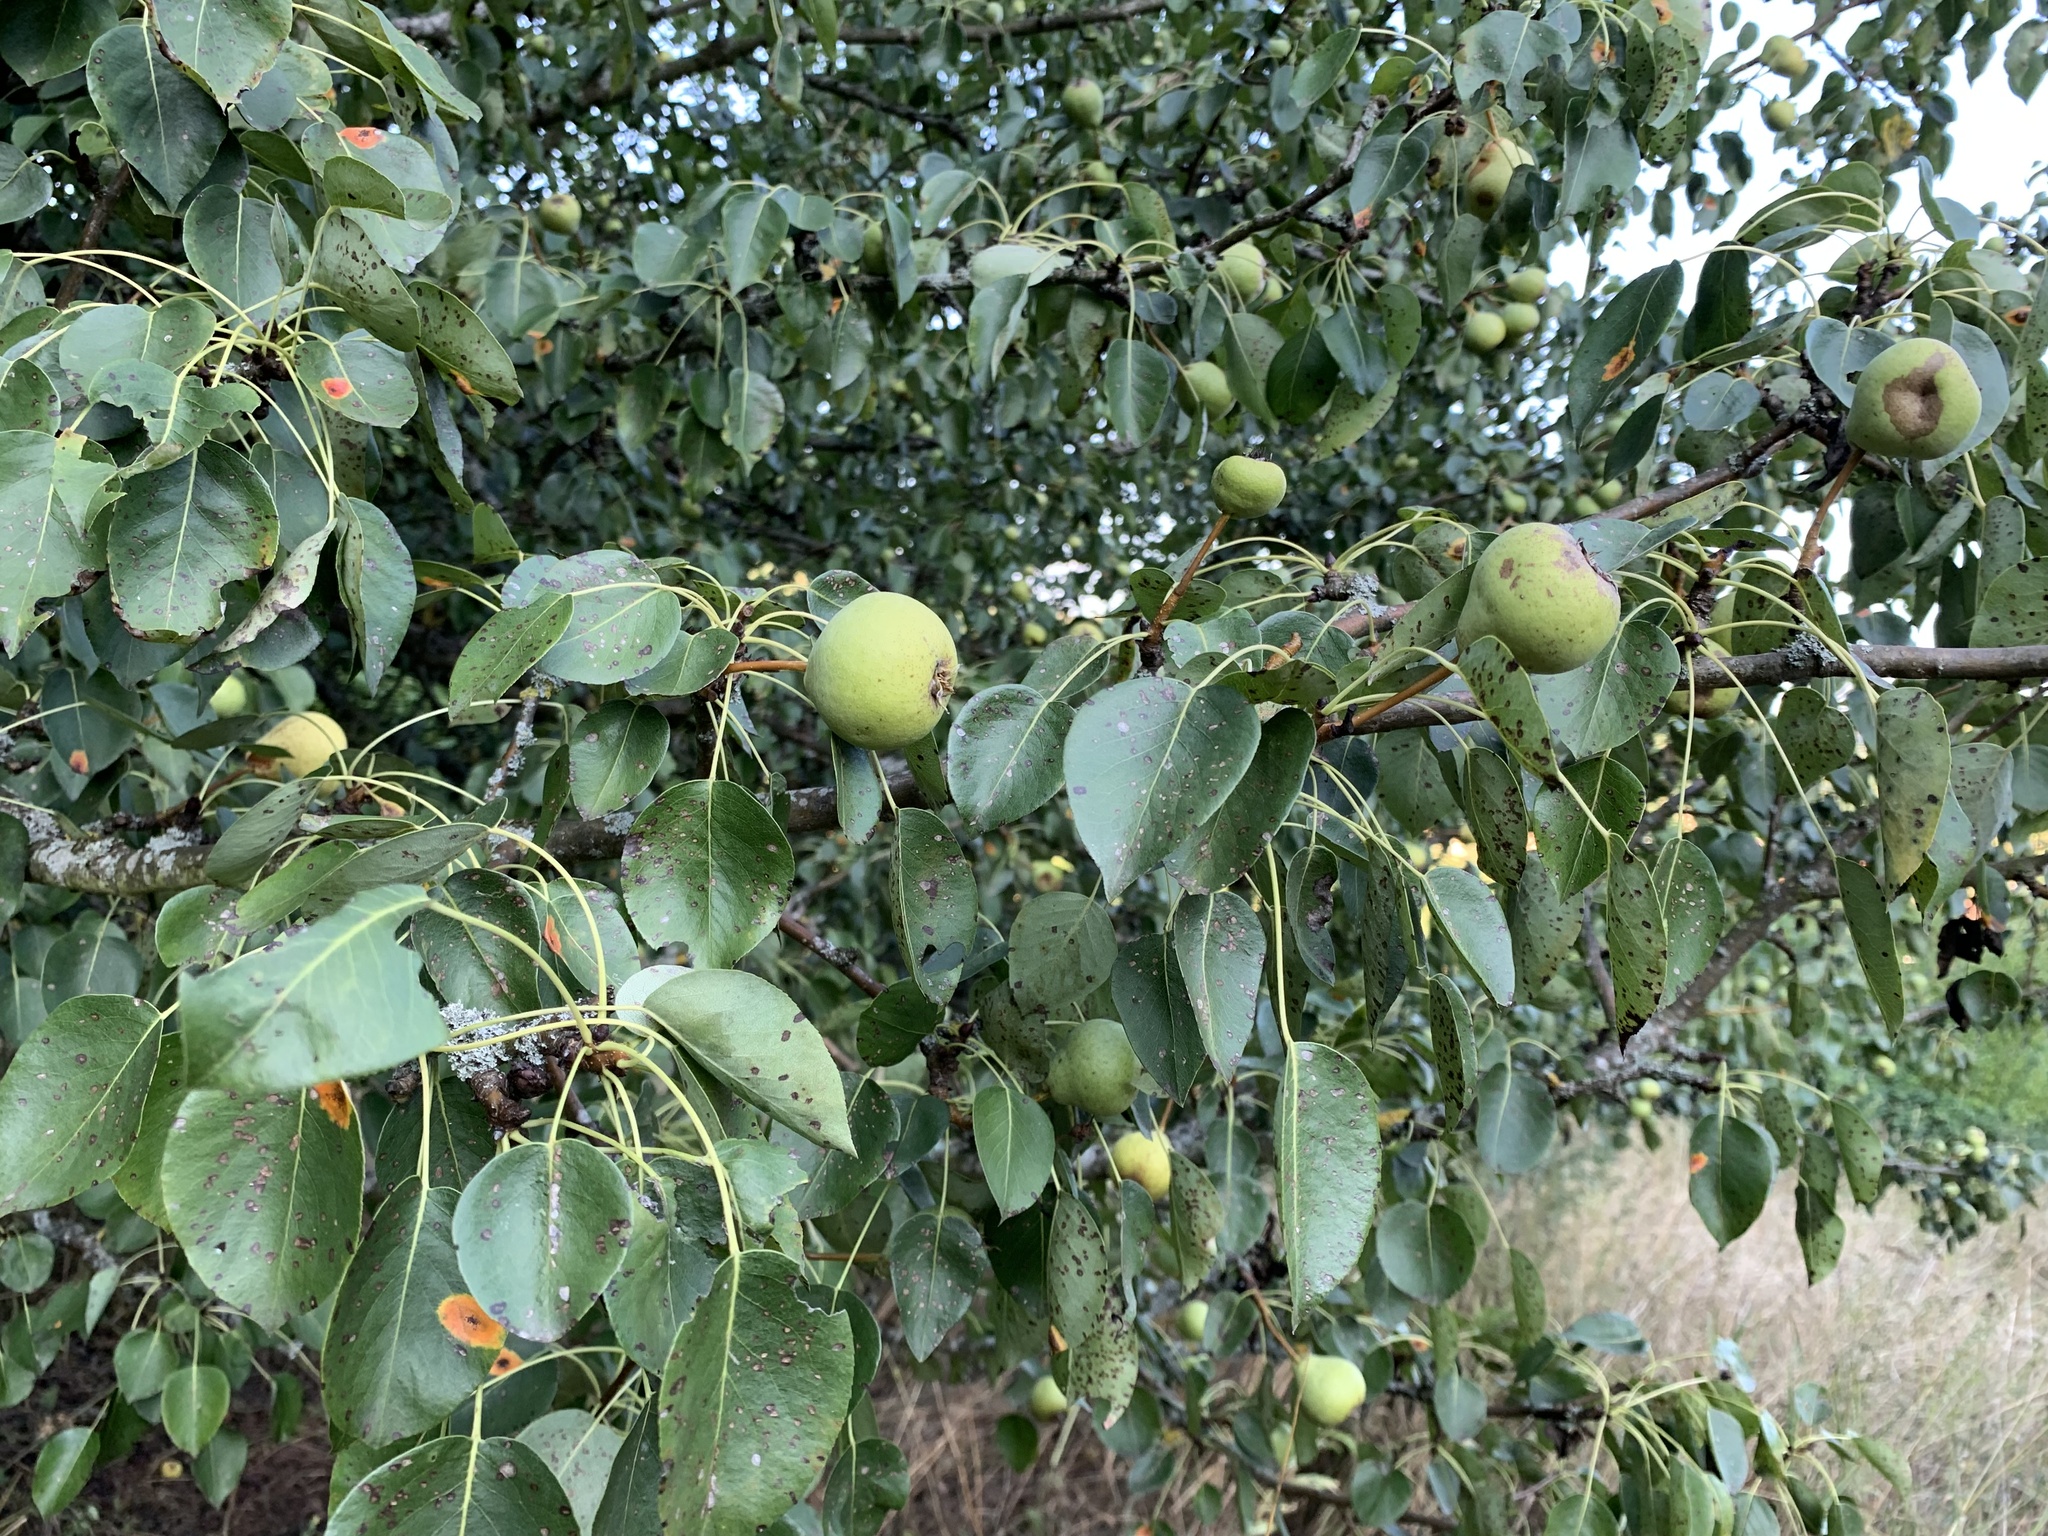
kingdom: Plantae
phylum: Tracheophyta
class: Magnoliopsida
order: Rosales
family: Rosaceae
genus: Pyrus
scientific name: Pyrus communis
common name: Pear
